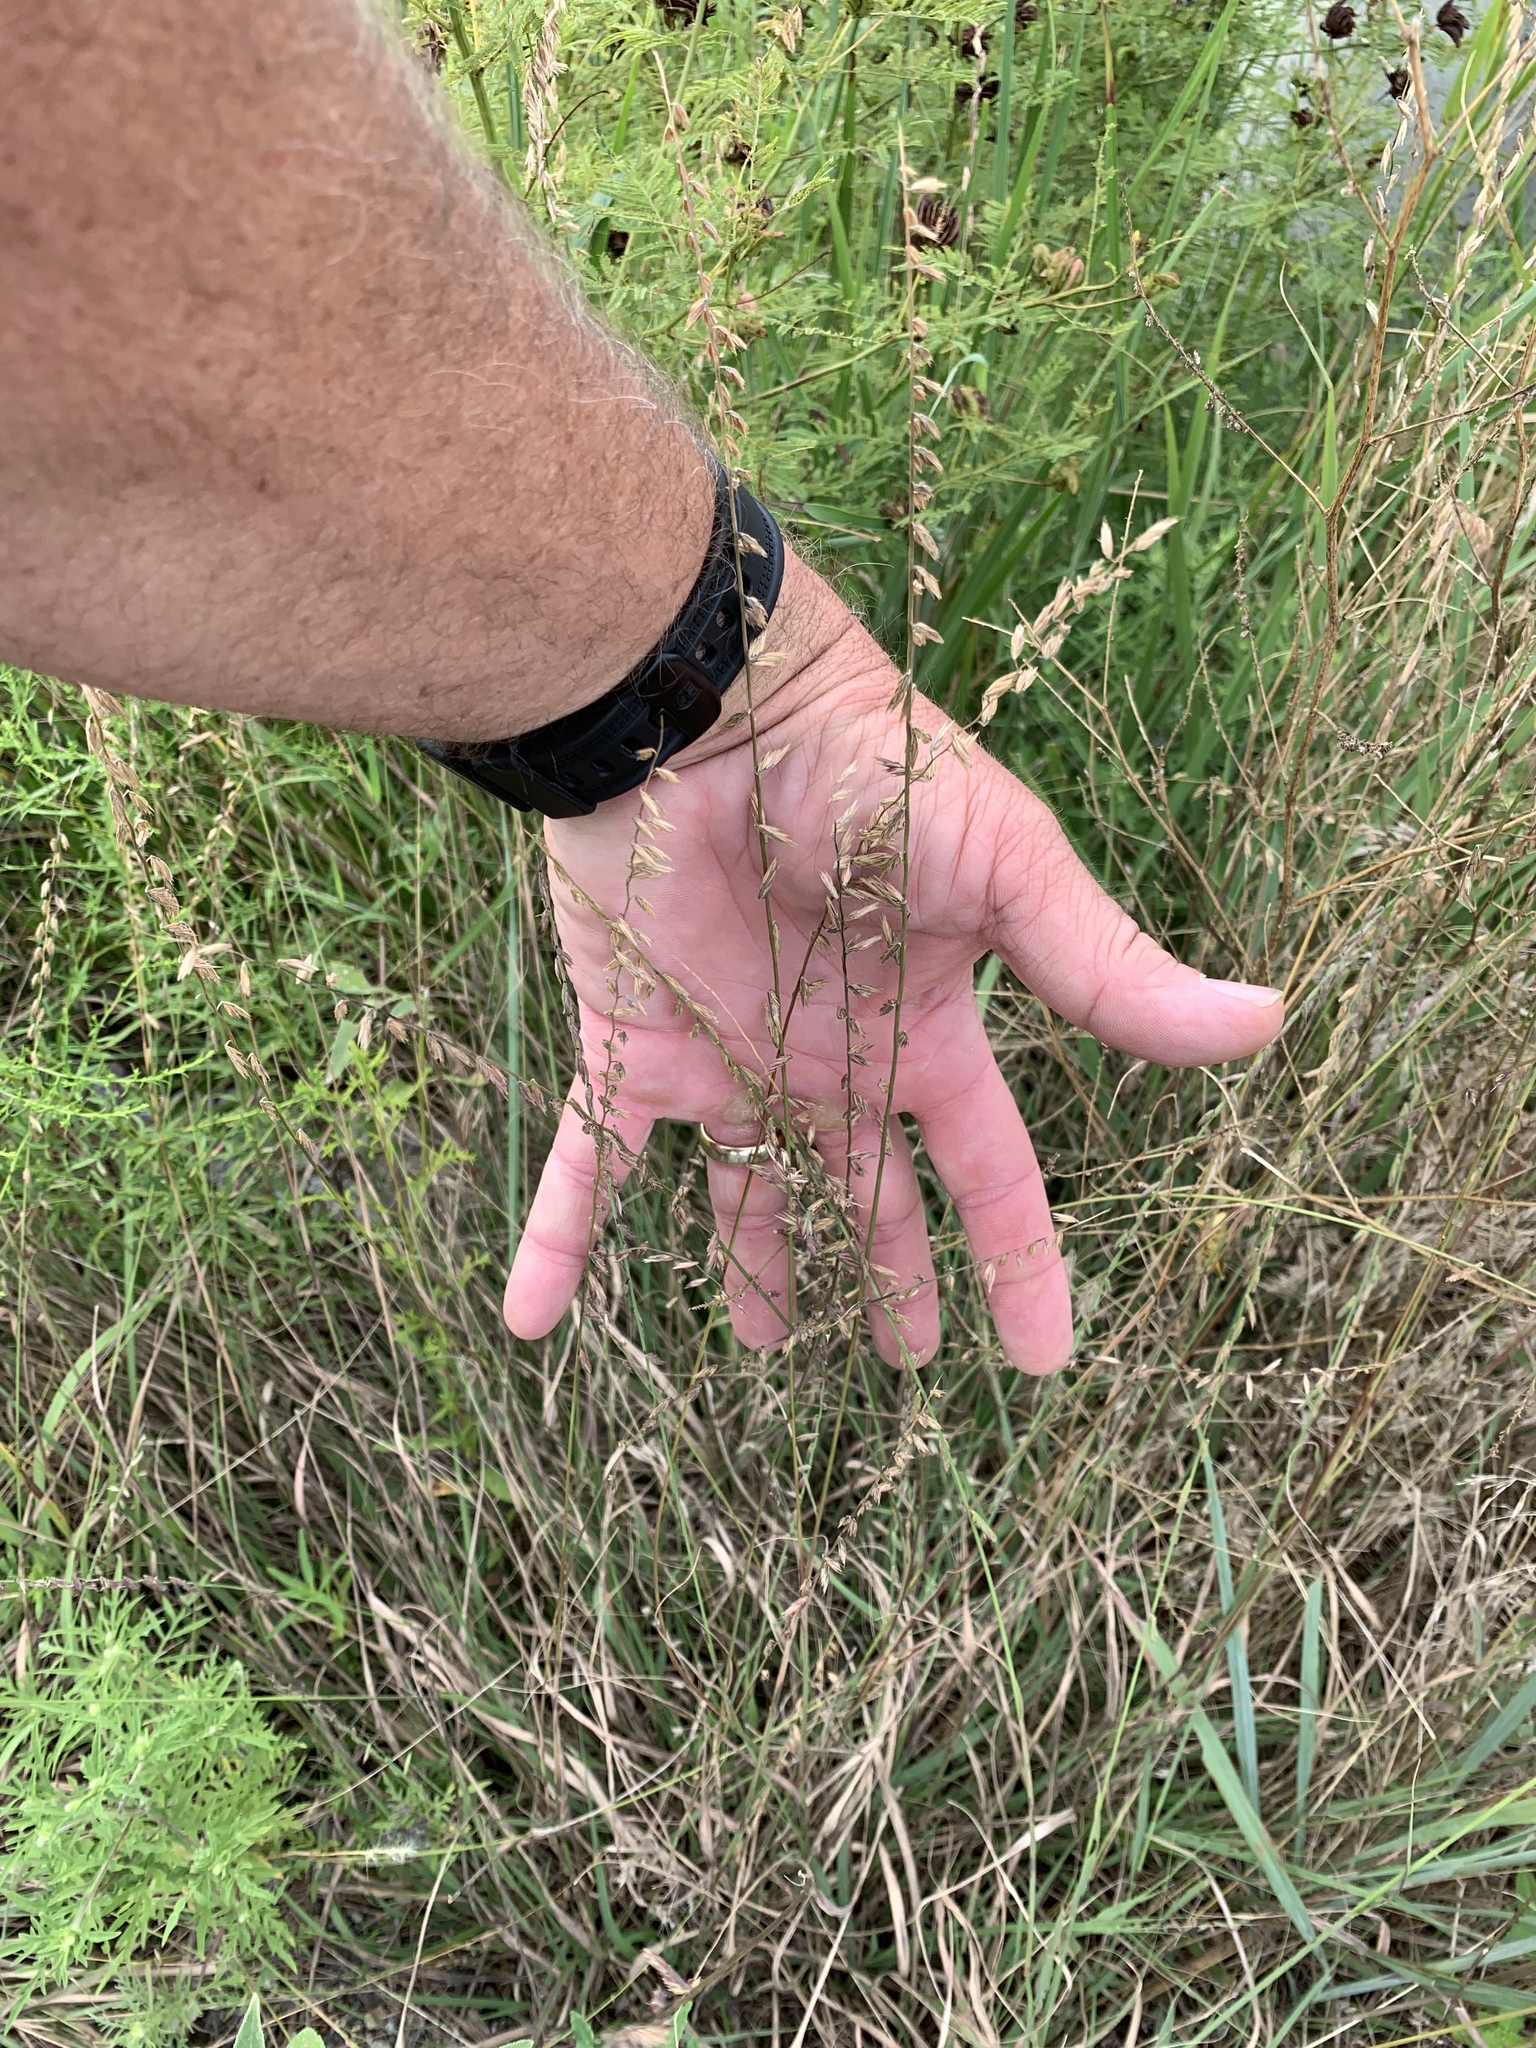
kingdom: Plantae
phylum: Tracheophyta
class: Liliopsida
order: Poales
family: Poaceae
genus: Bouteloua
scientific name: Bouteloua curtipendula
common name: Side-oats grama
